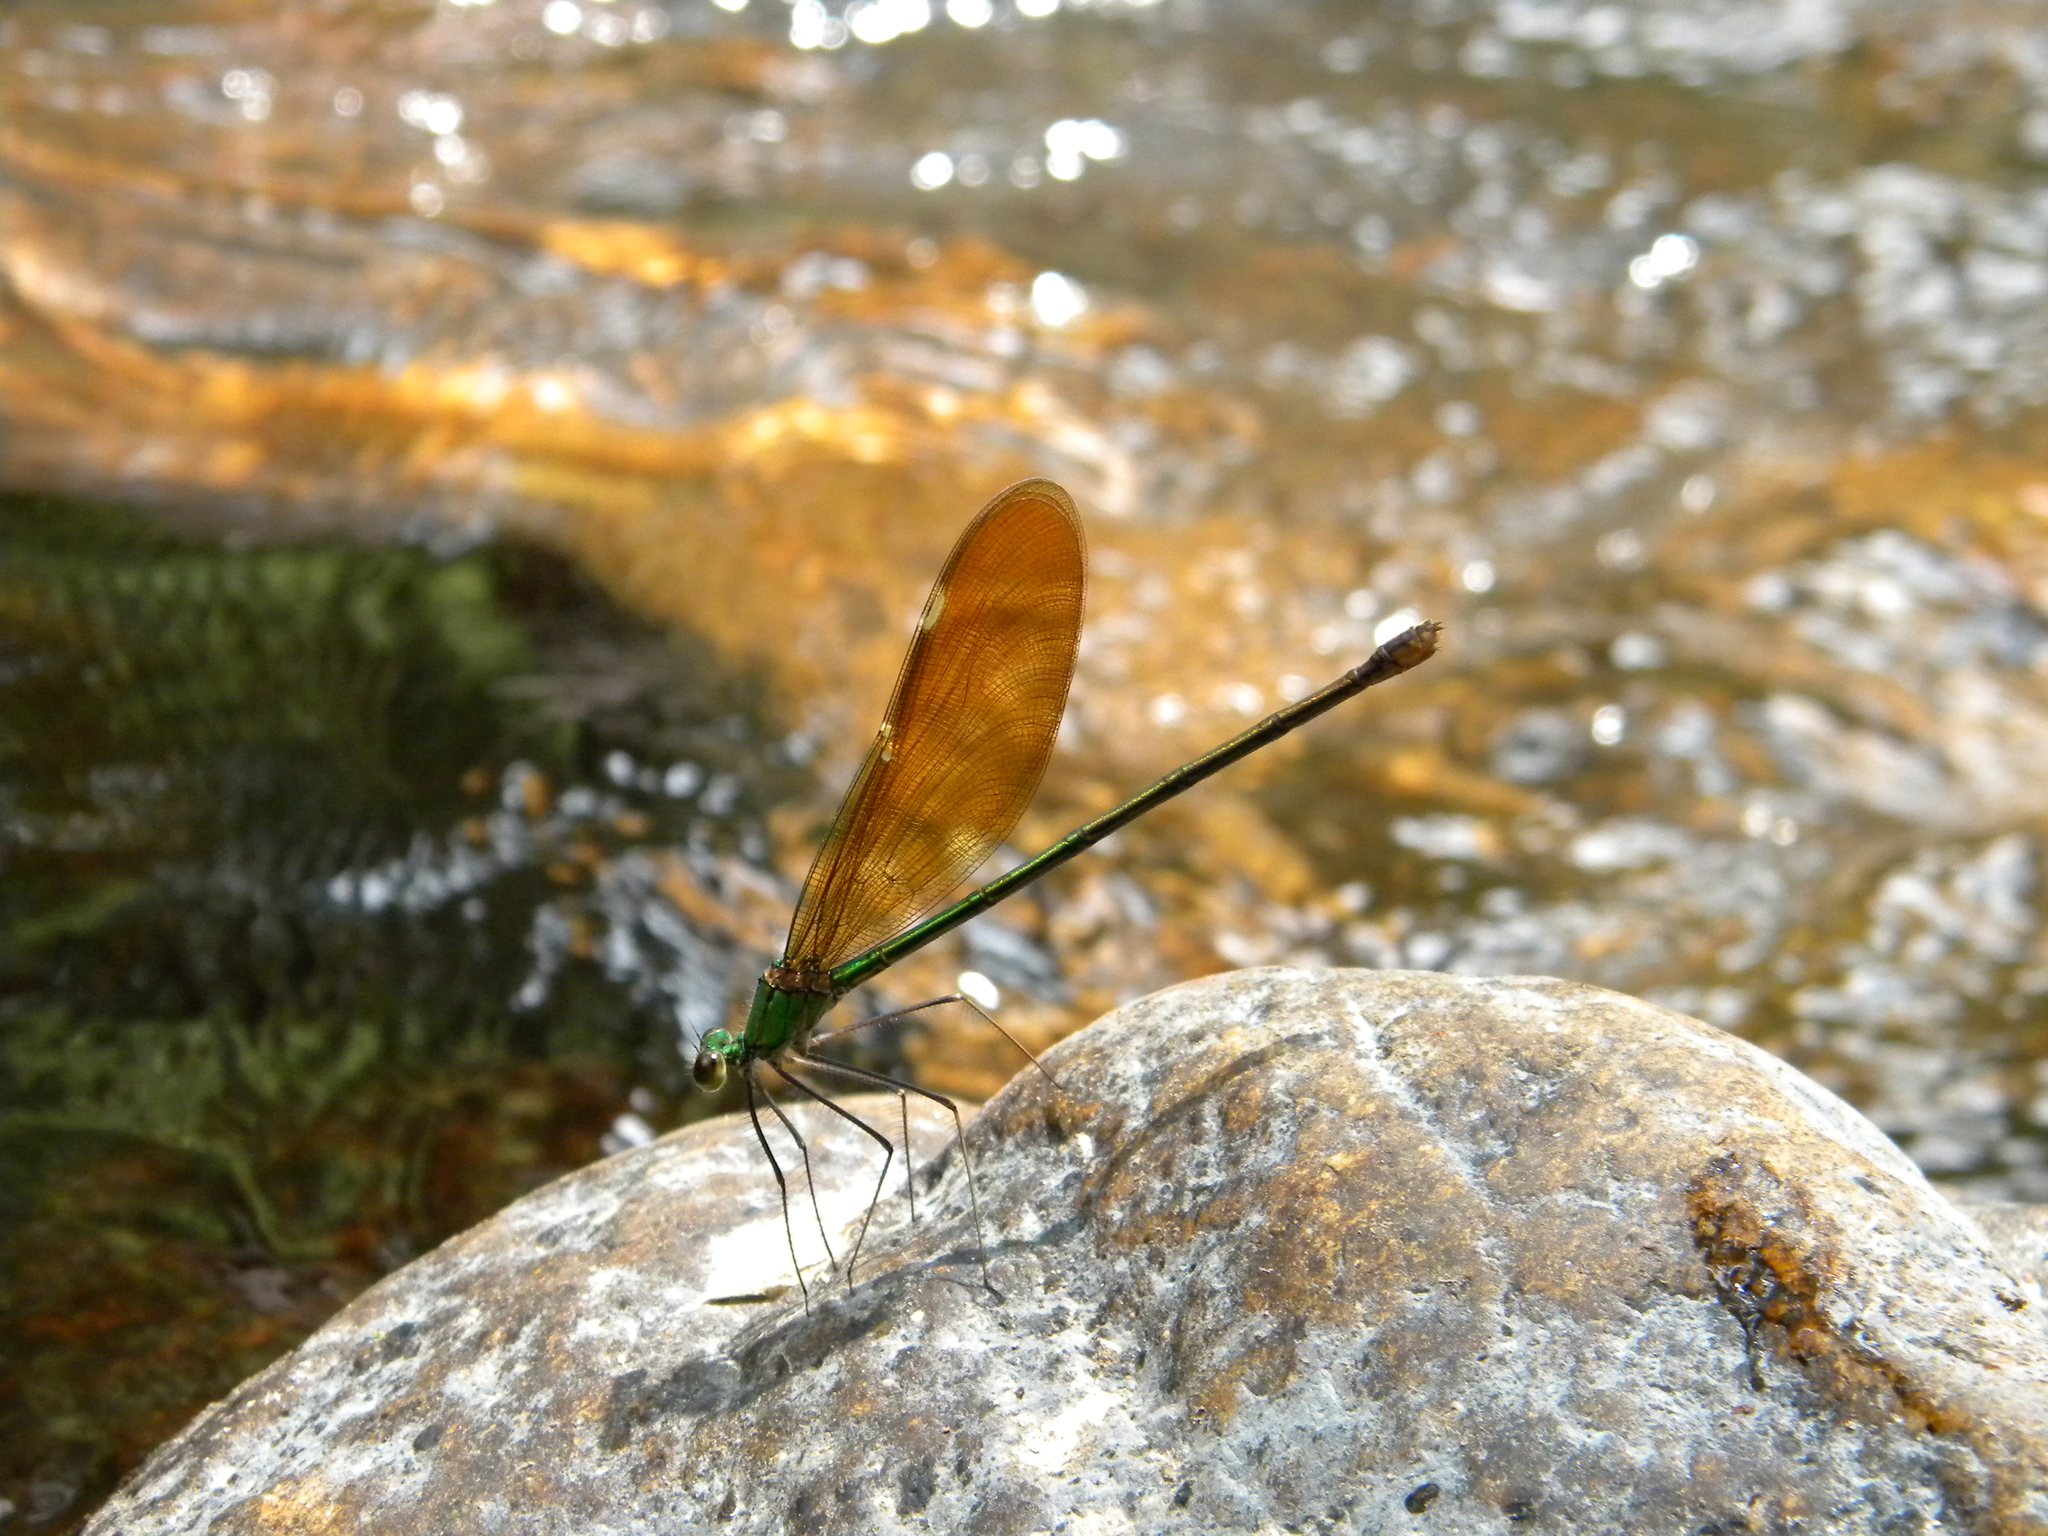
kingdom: Animalia
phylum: Arthropoda
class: Insecta
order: Odonata
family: Calopterygidae
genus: Neurobasis
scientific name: Neurobasis chinensis
